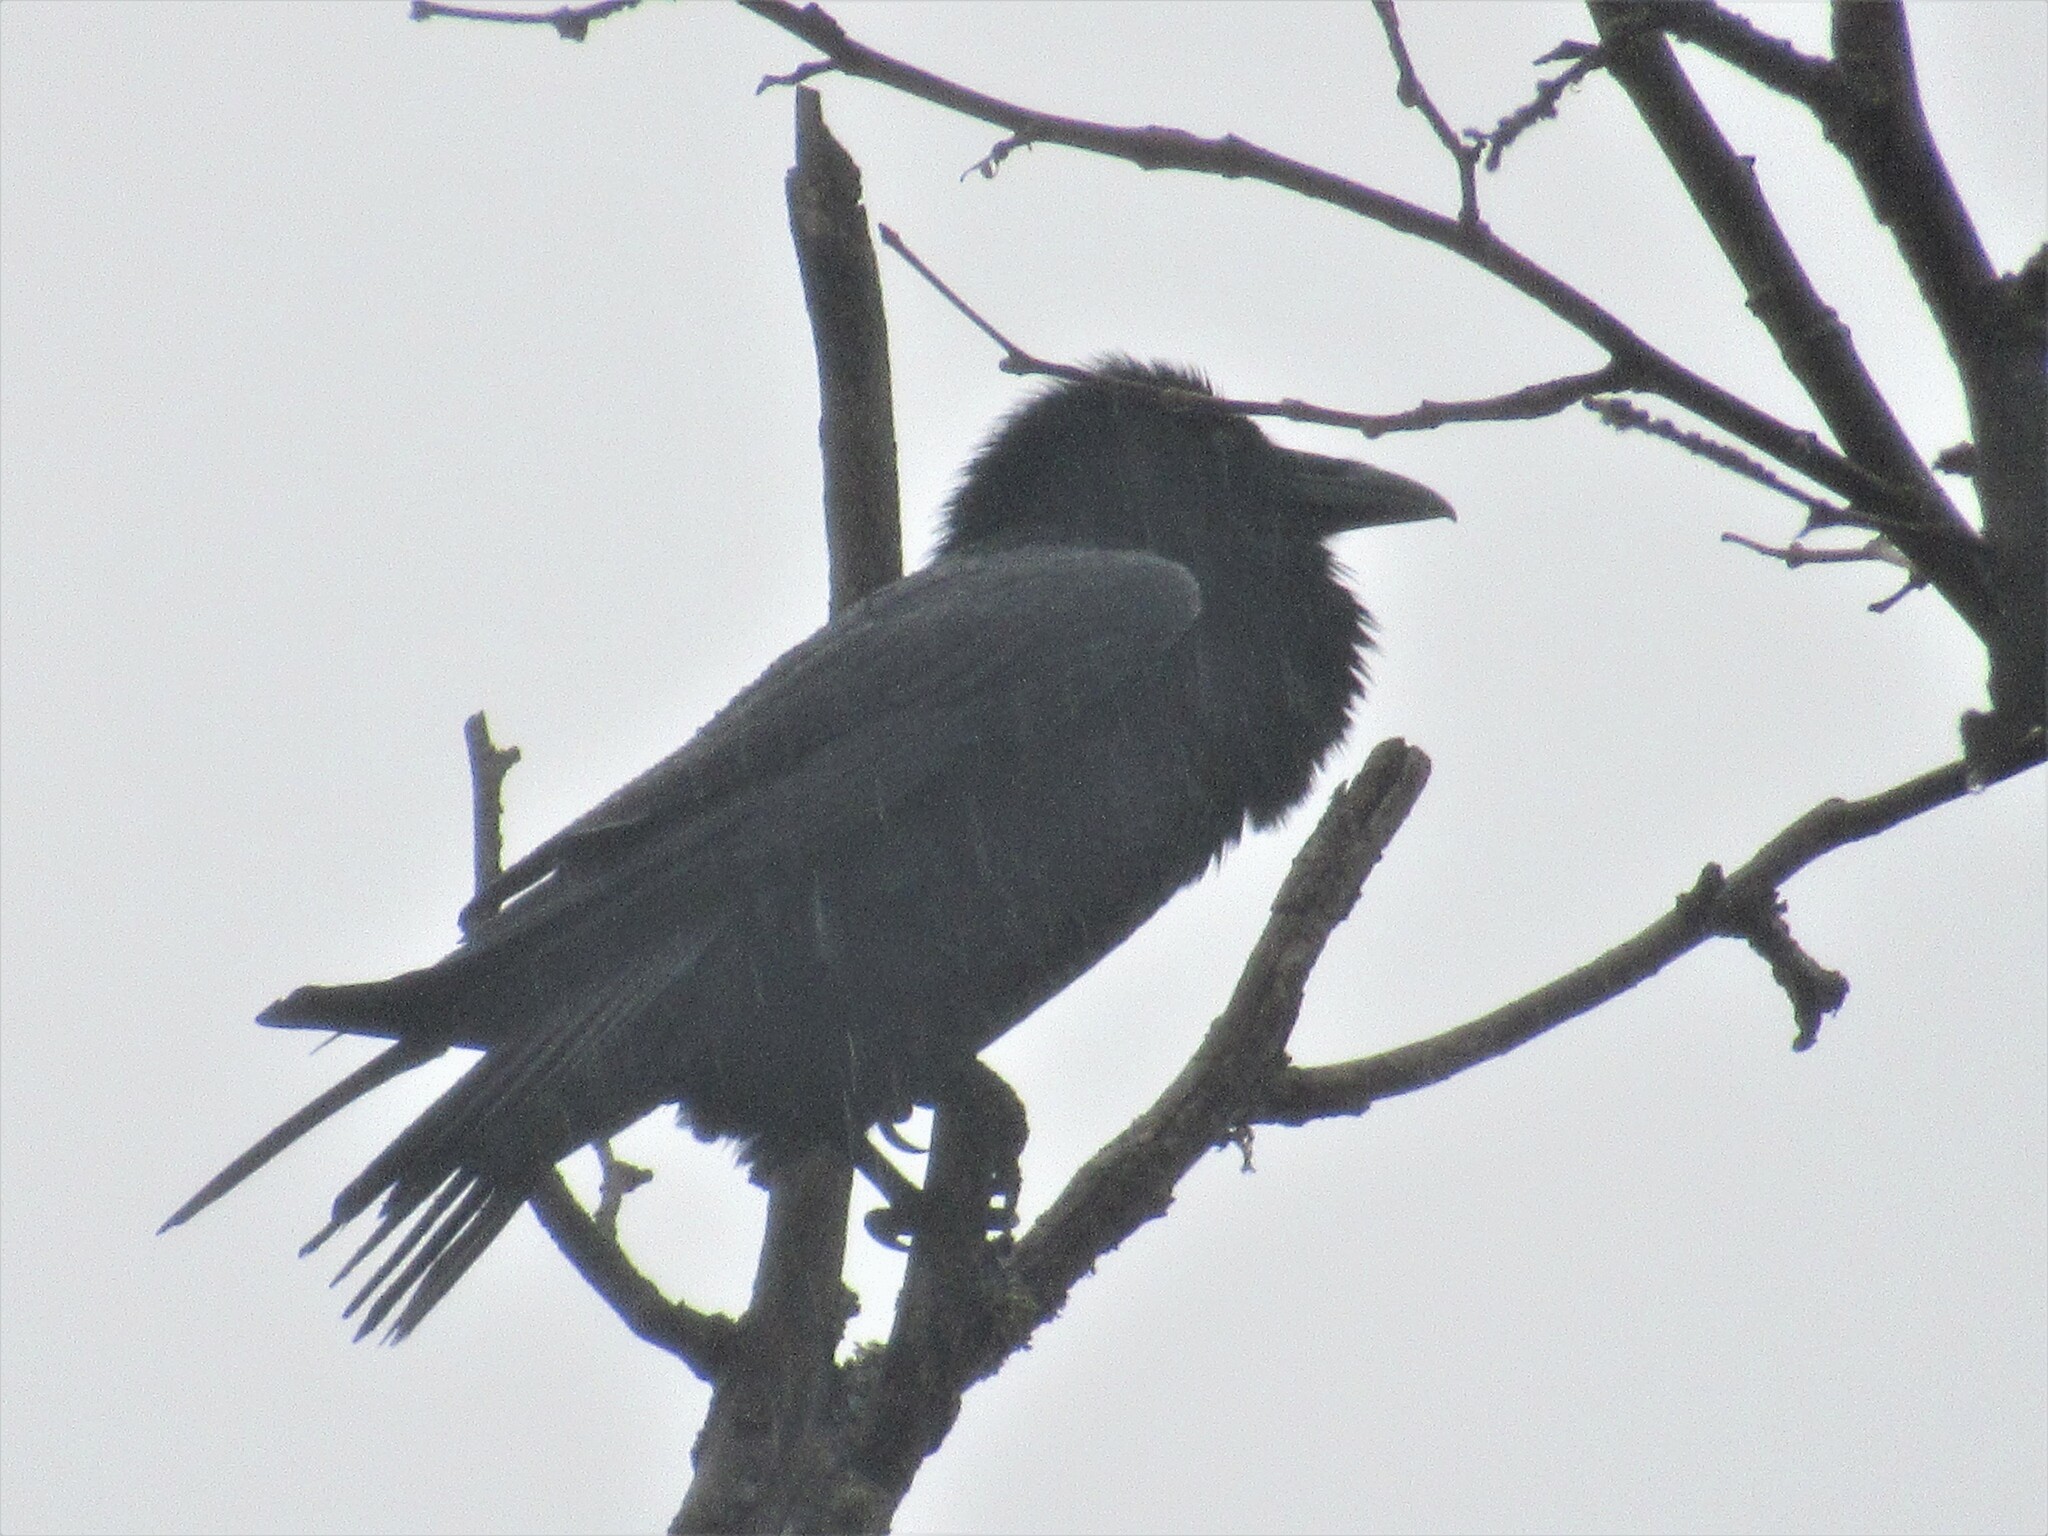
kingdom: Animalia
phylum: Chordata
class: Aves
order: Passeriformes
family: Corvidae
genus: Corvus
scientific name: Corvus corax
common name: Common raven
